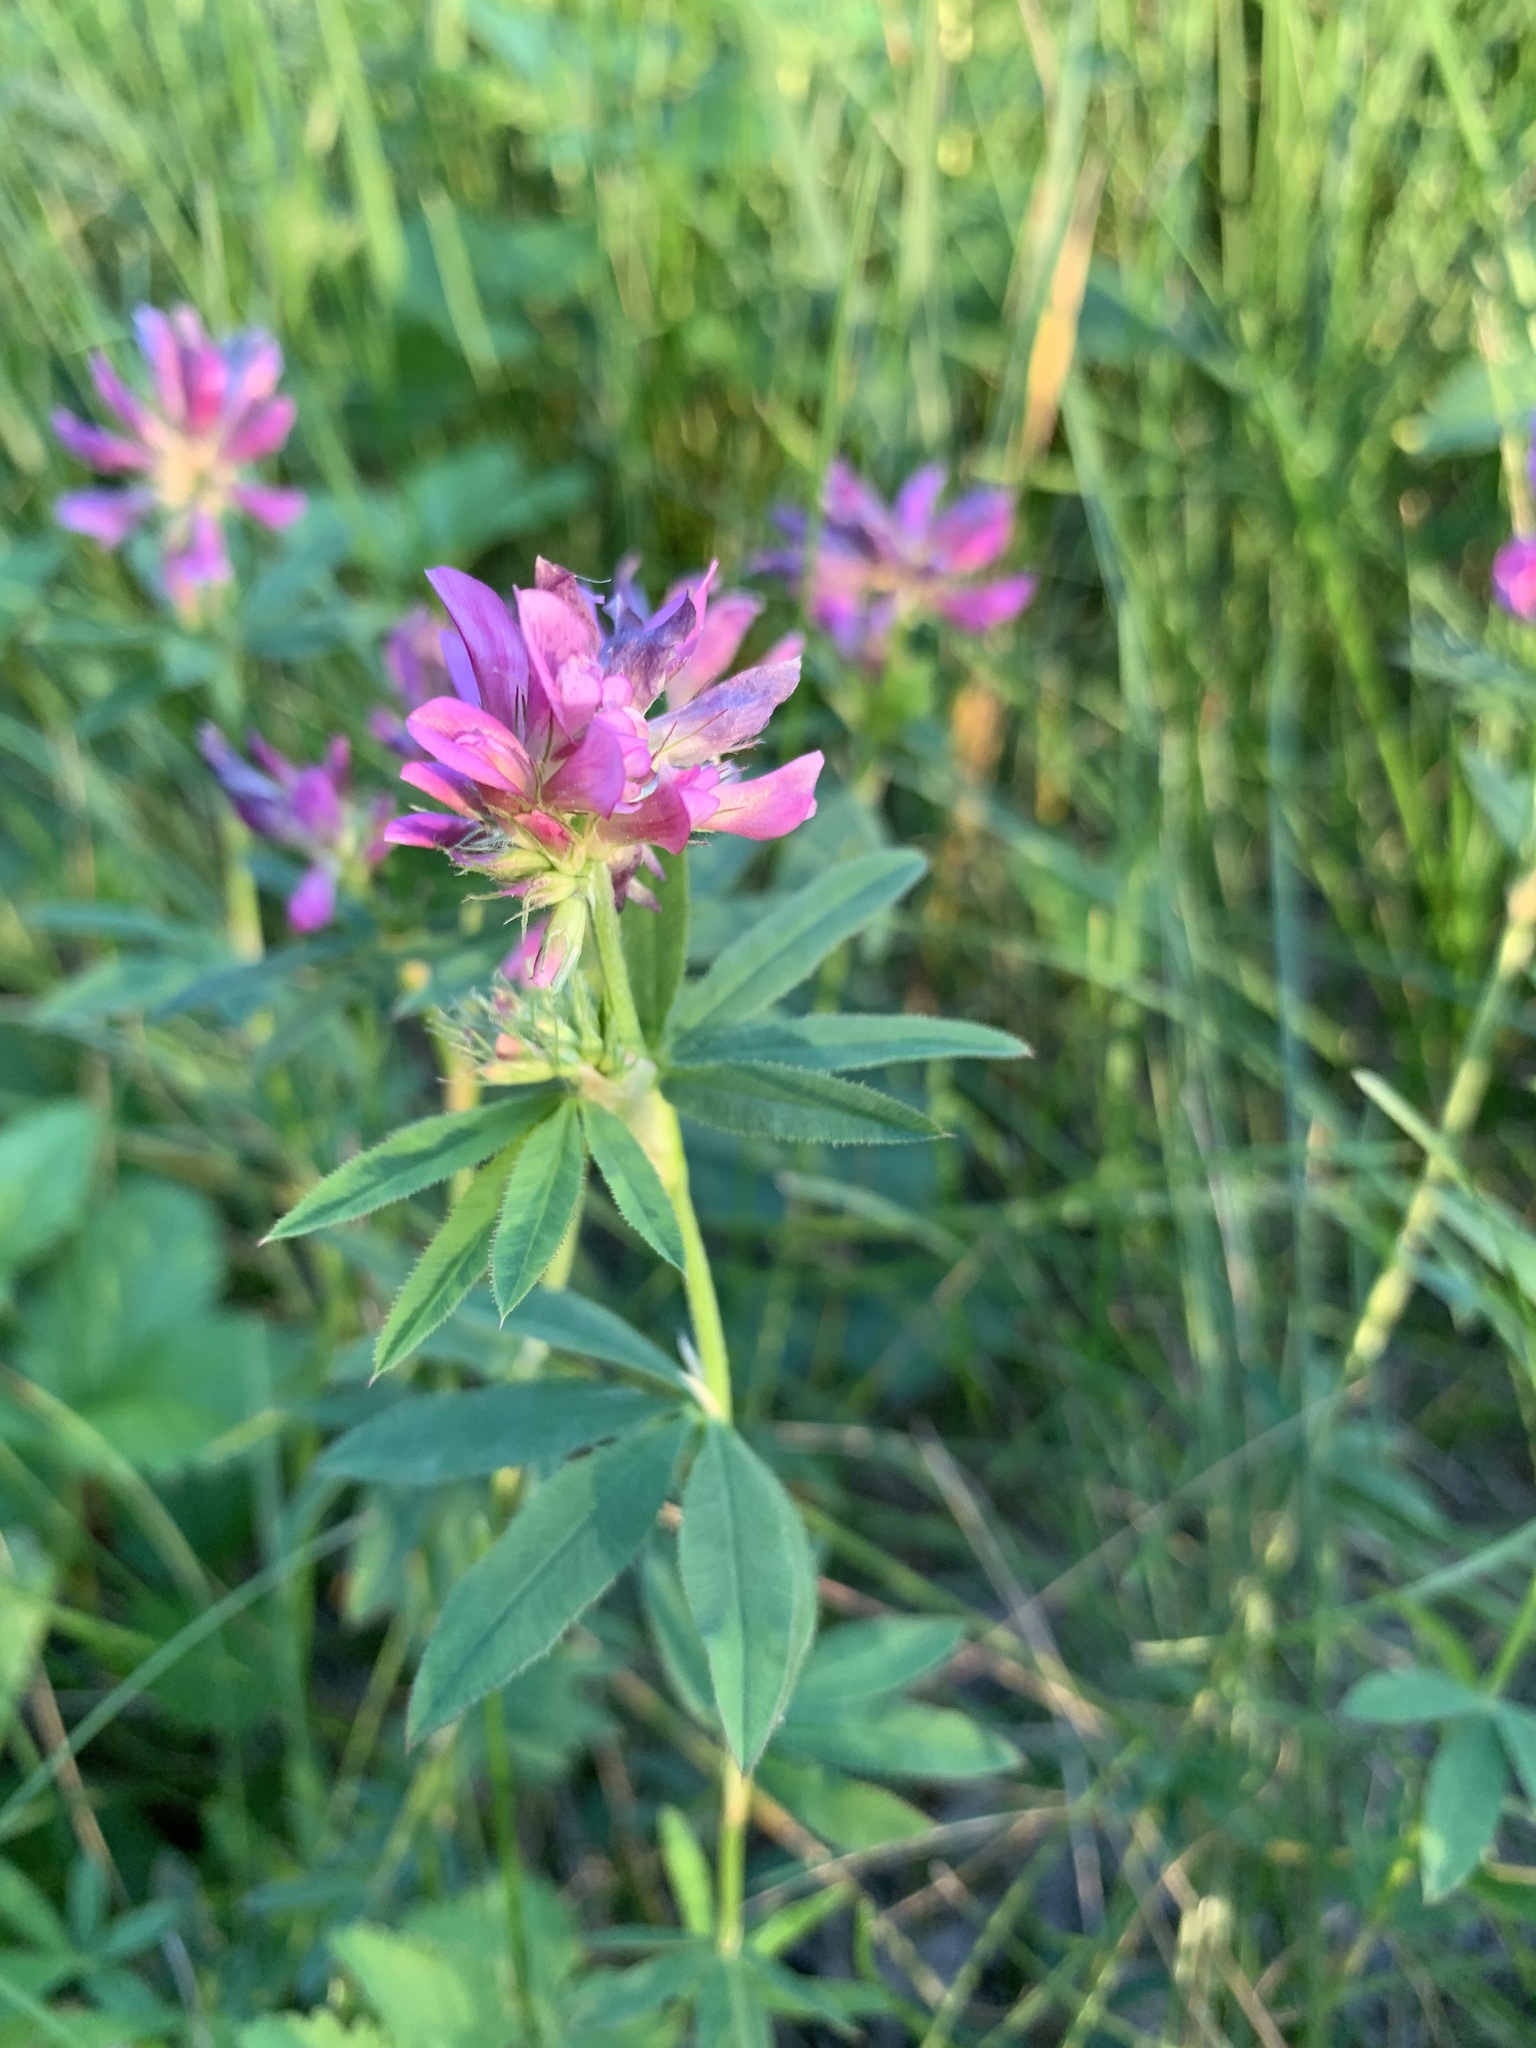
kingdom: Plantae
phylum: Tracheophyta
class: Magnoliopsida
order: Fabales
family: Fabaceae
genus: Trifolium
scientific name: Trifolium lupinaster
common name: Lupine clover
